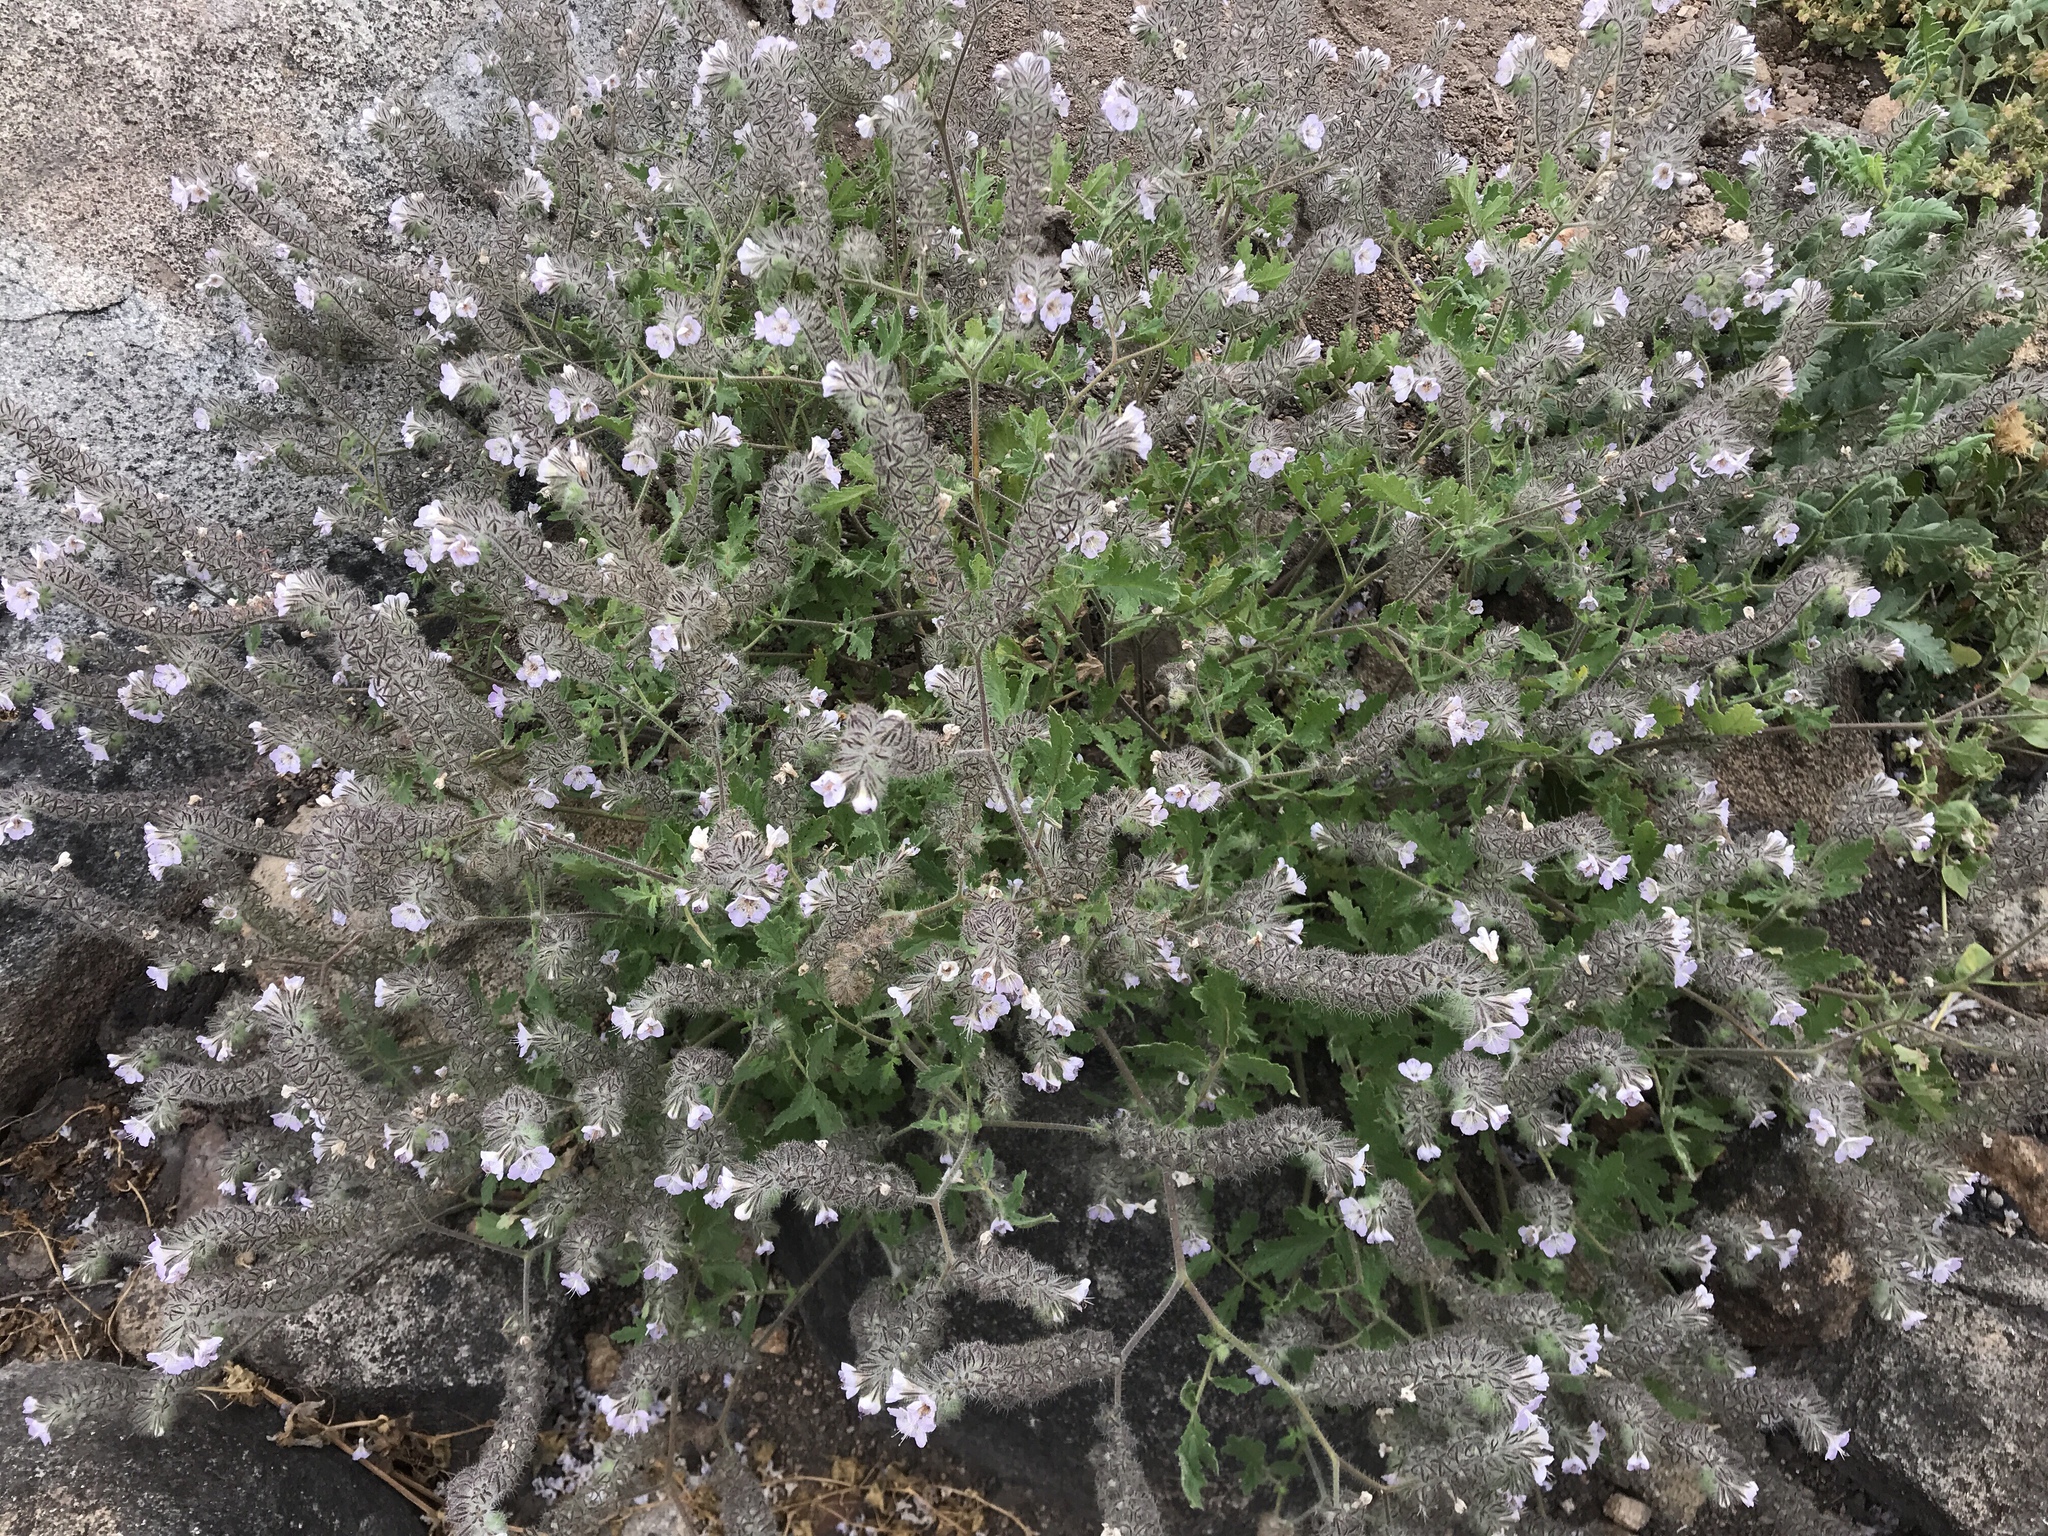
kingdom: Plantae
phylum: Tracheophyta
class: Magnoliopsida
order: Boraginales
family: Hydrophyllaceae
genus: Phacelia
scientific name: Phacelia cicutaria
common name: Caterpillar phacelia
